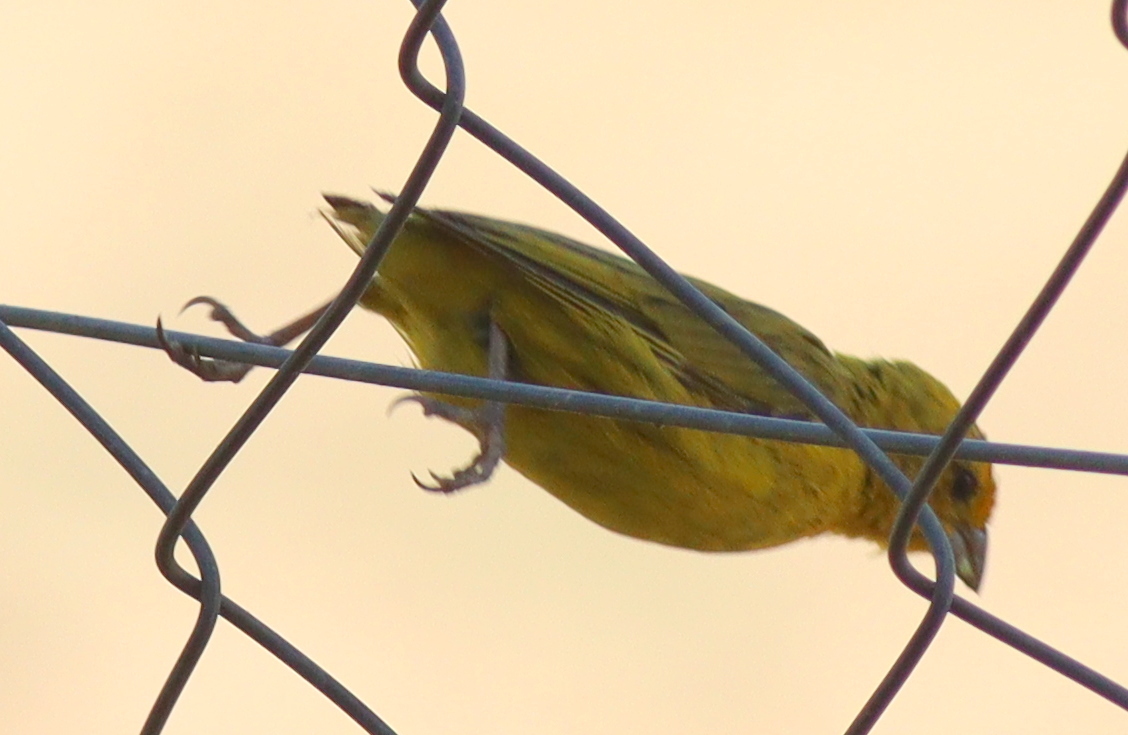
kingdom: Animalia
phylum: Chordata
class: Aves
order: Passeriformes
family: Thraupidae
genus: Sicalis
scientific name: Sicalis flaveola
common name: Saffron finch
